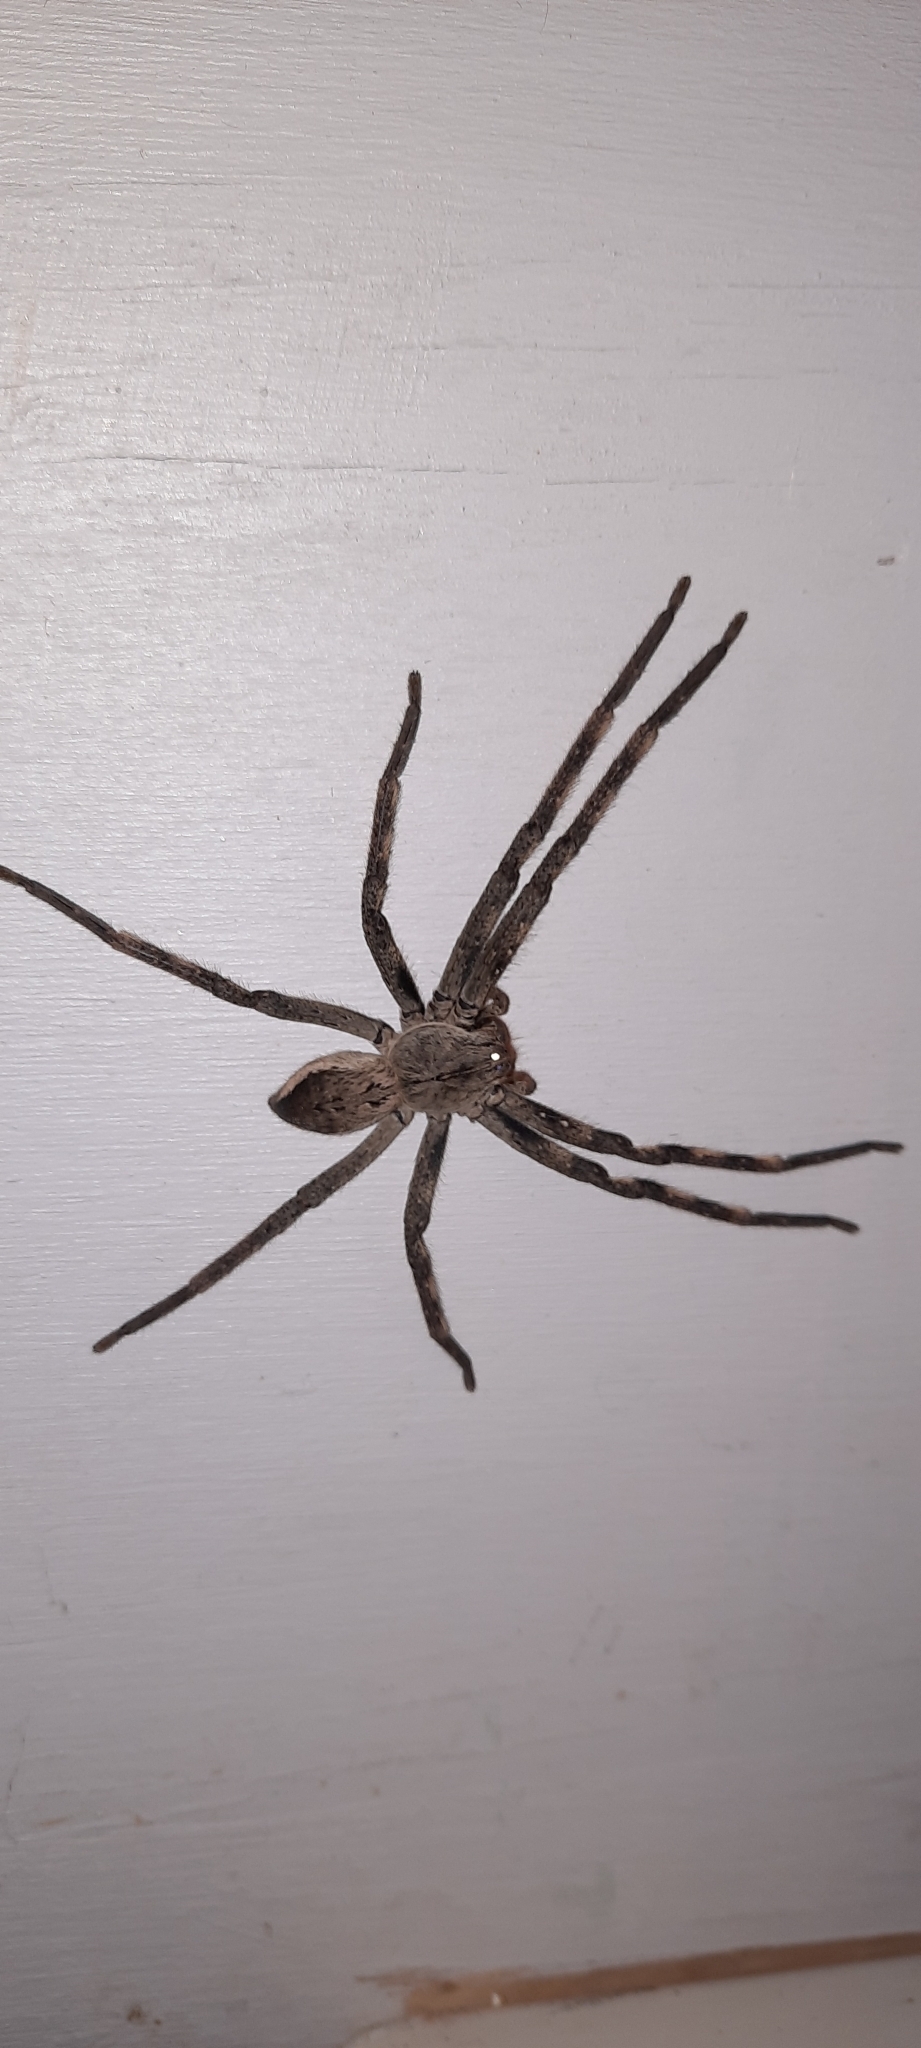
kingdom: Animalia
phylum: Arthropoda
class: Arachnida
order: Araneae
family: Sparassidae
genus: Palystes
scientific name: Palystes superciliosus
